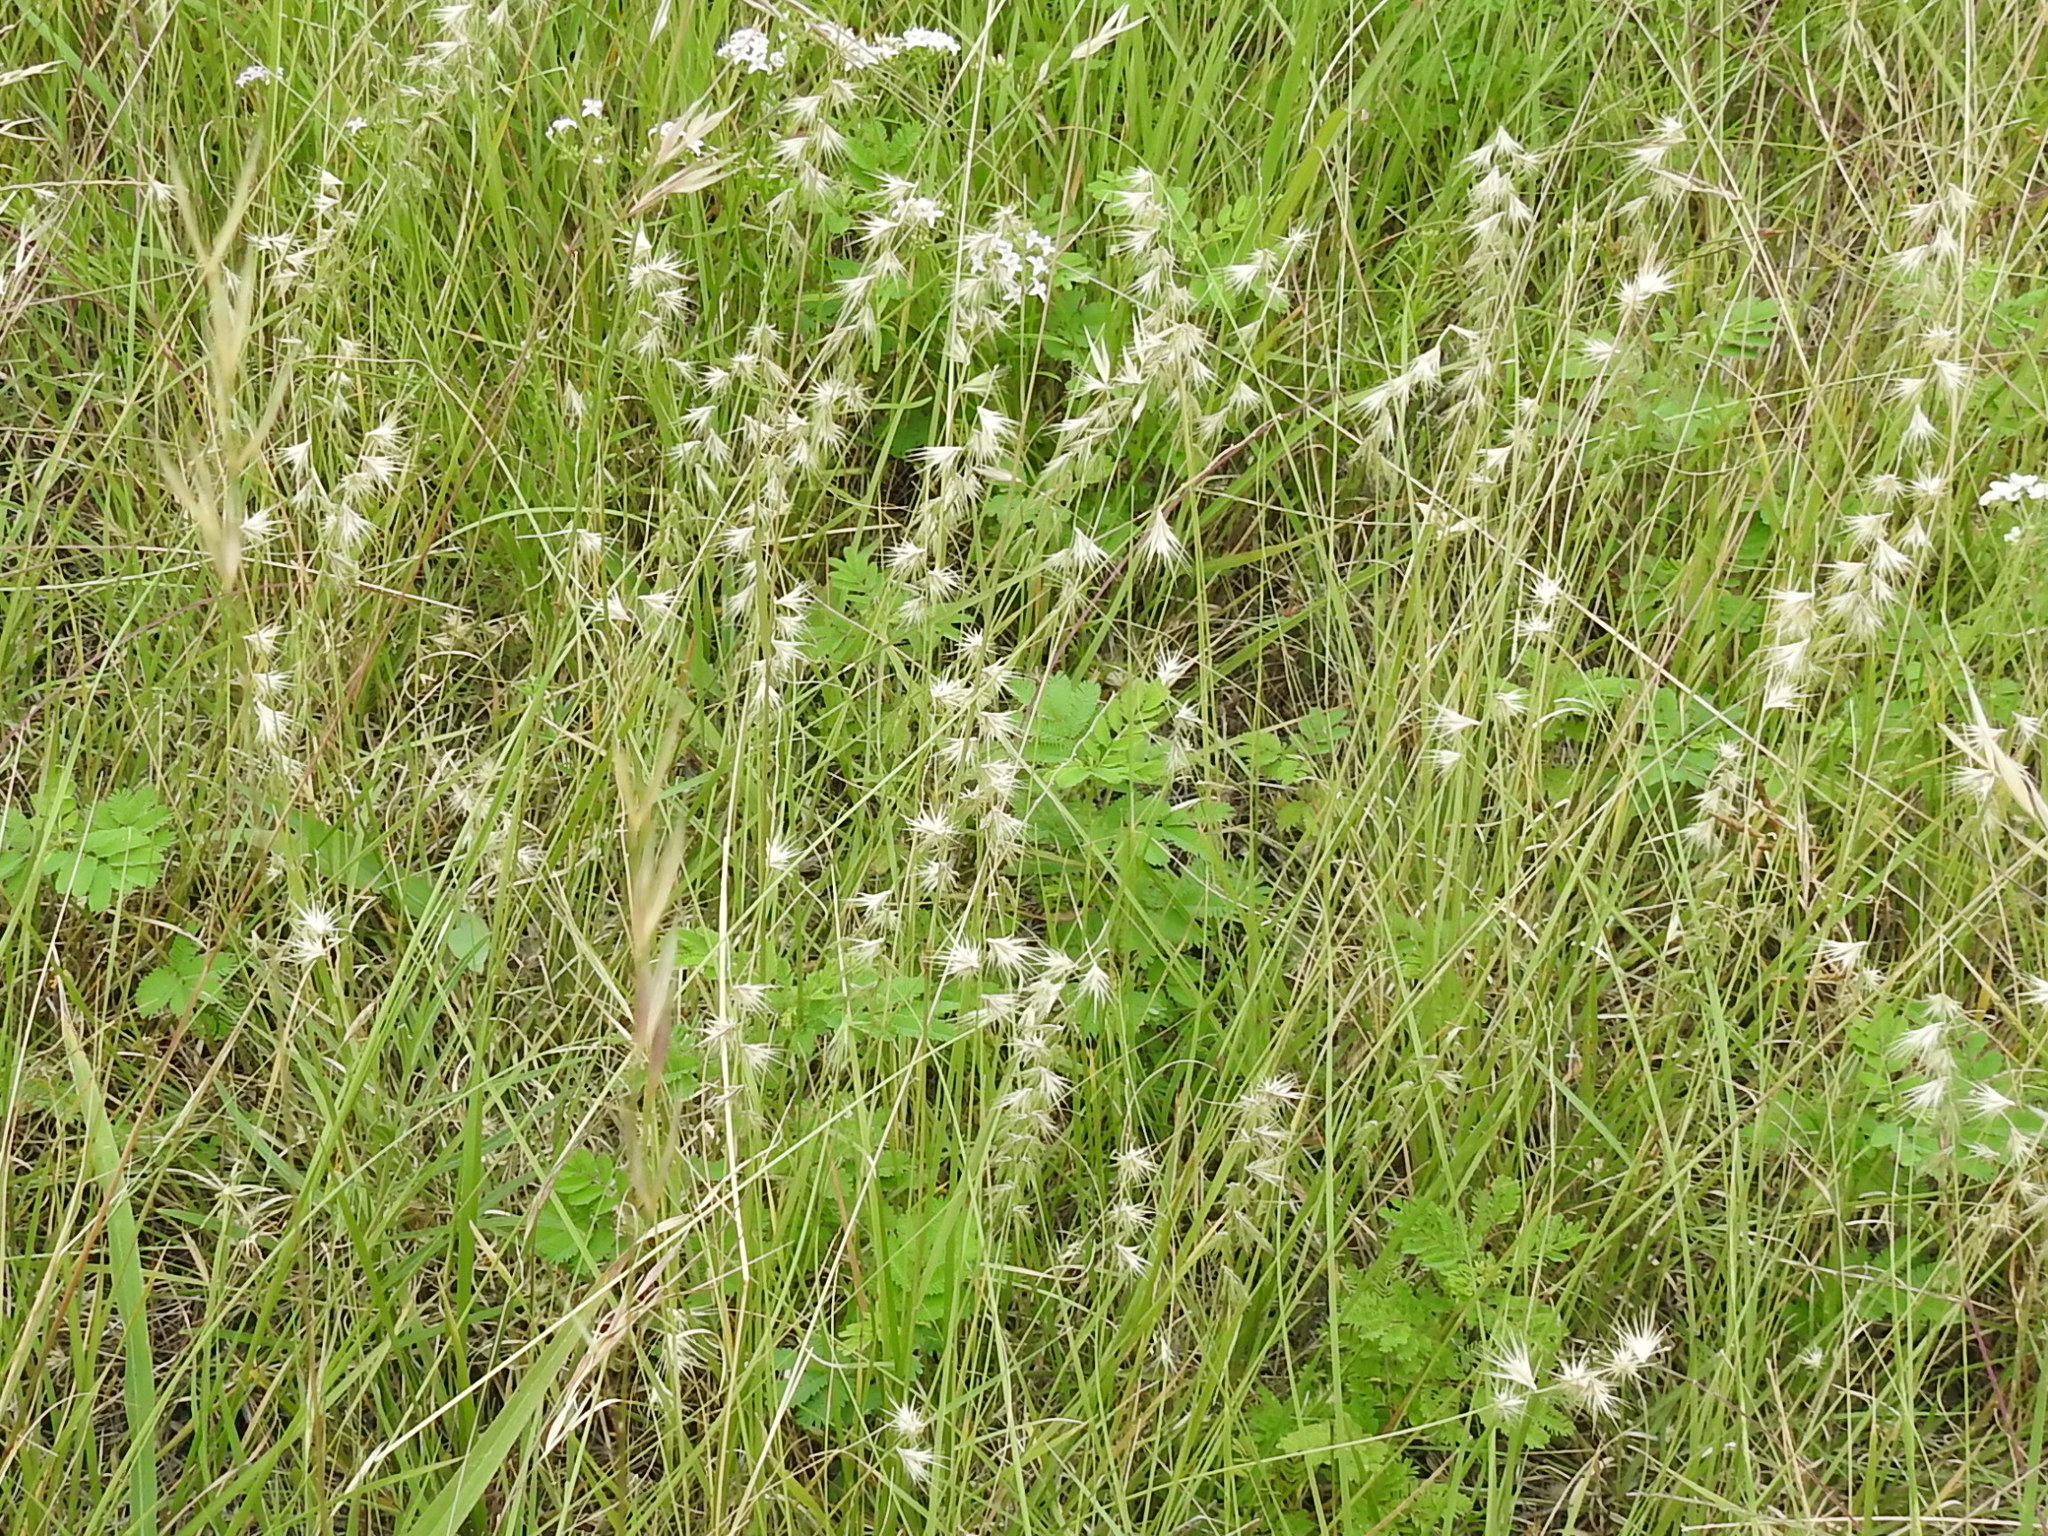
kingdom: Plantae
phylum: Tracheophyta
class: Liliopsida
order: Poales
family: Poaceae
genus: Bouteloua
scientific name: Bouteloua rigidiseta
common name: Texas grama
